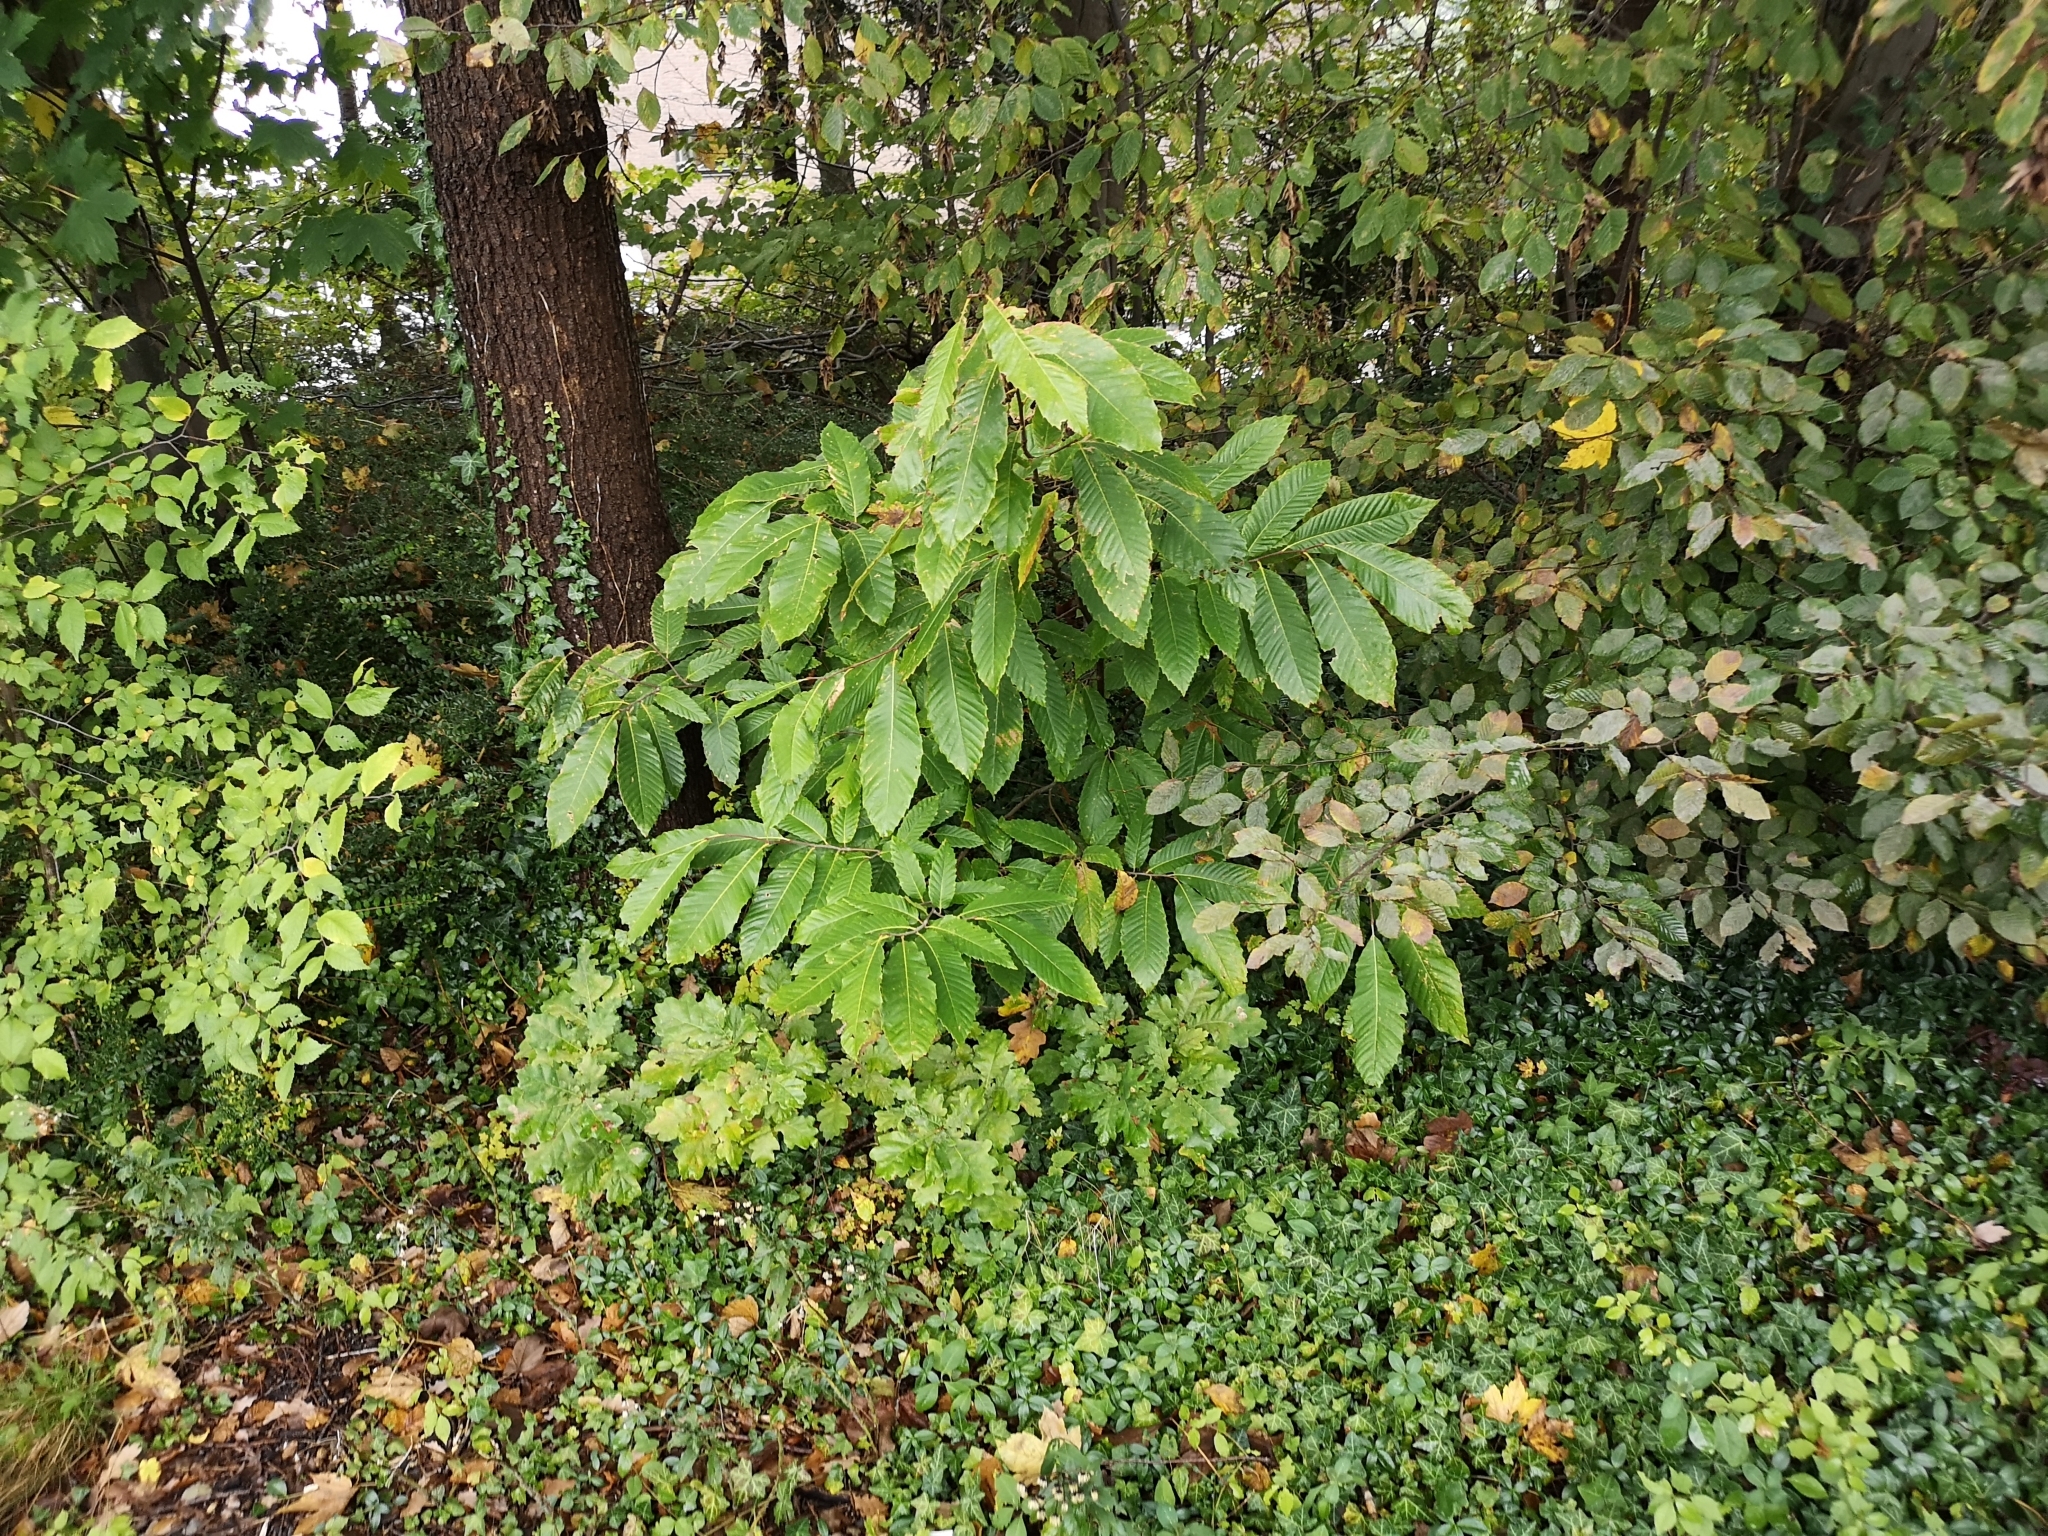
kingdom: Plantae
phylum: Tracheophyta
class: Magnoliopsida
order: Fagales
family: Fagaceae
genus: Castanea
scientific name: Castanea sativa
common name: Sweet chestnut
